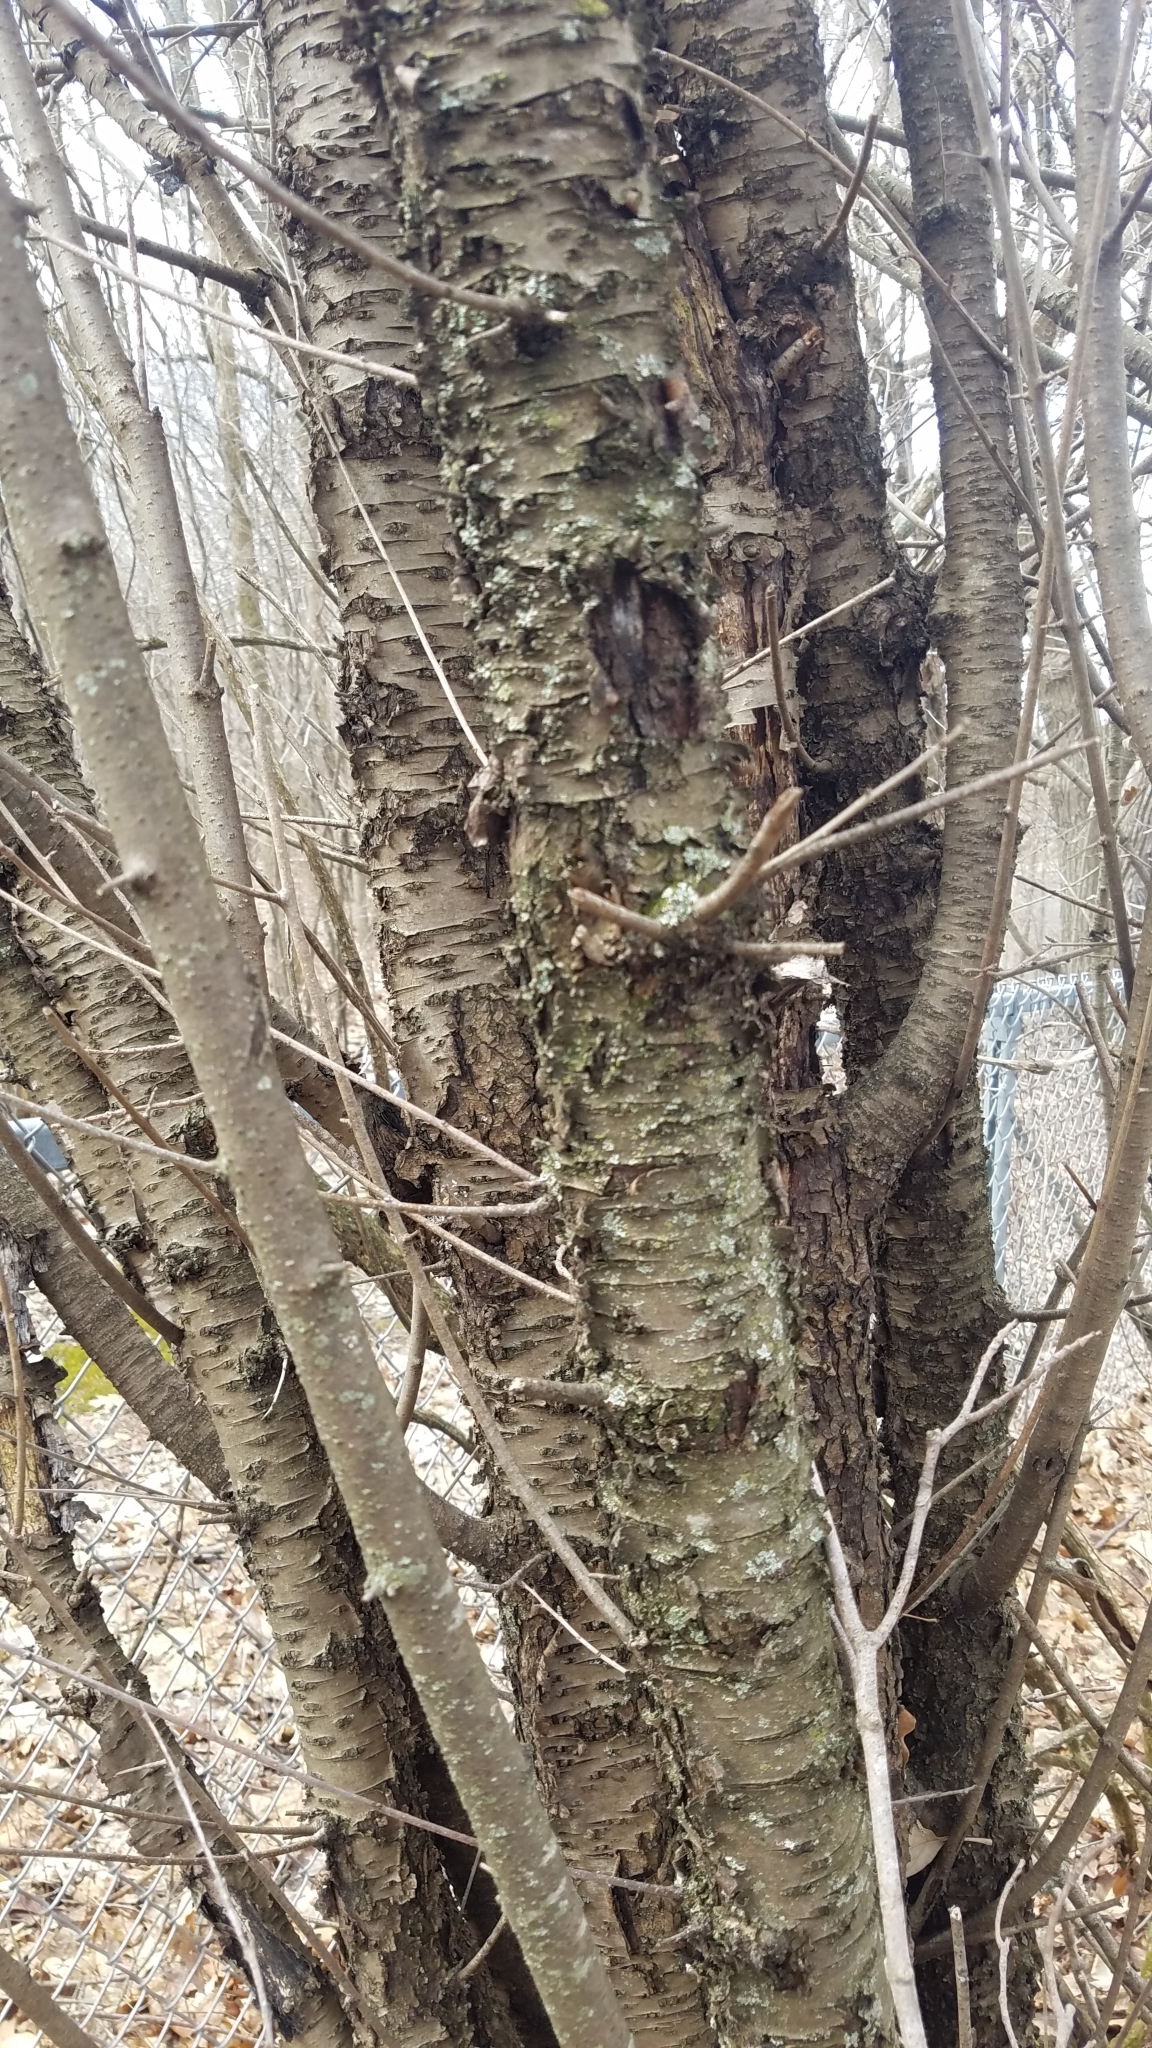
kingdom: Plantae
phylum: Tracheophyta
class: Magnoliopsida
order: Rosales
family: Rhamnaceae
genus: Rhamnus
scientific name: Rhamnus cathartica
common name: Common buckthorn
